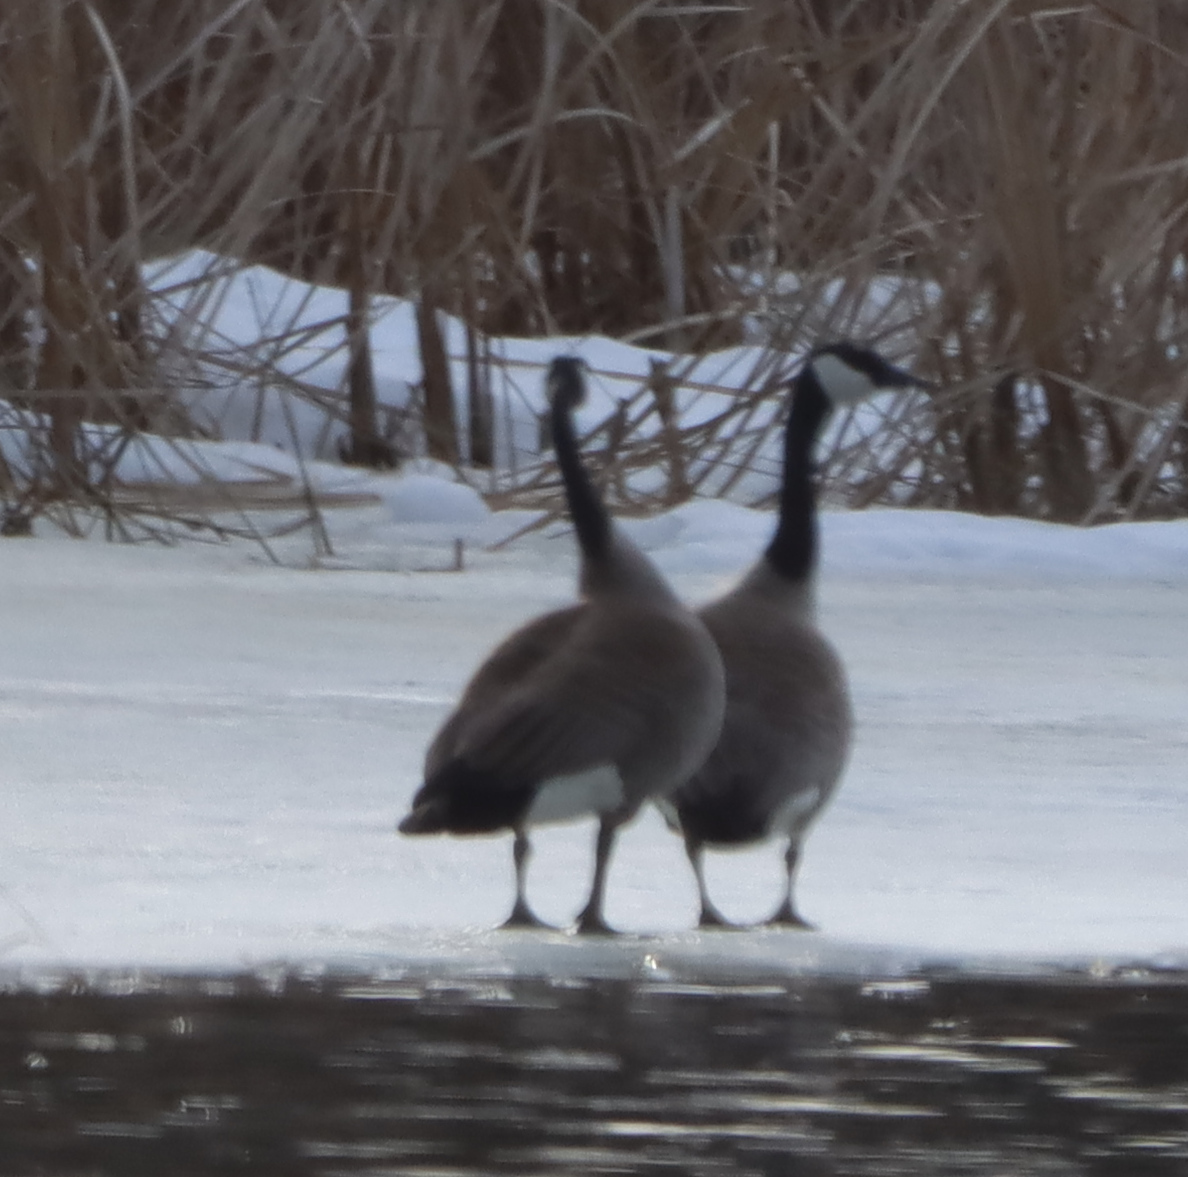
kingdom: Animalia
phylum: Chordata
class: Aves
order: Anseriformes
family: Anatidae
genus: Branta
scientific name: Branta canadensis
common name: Canada goose
